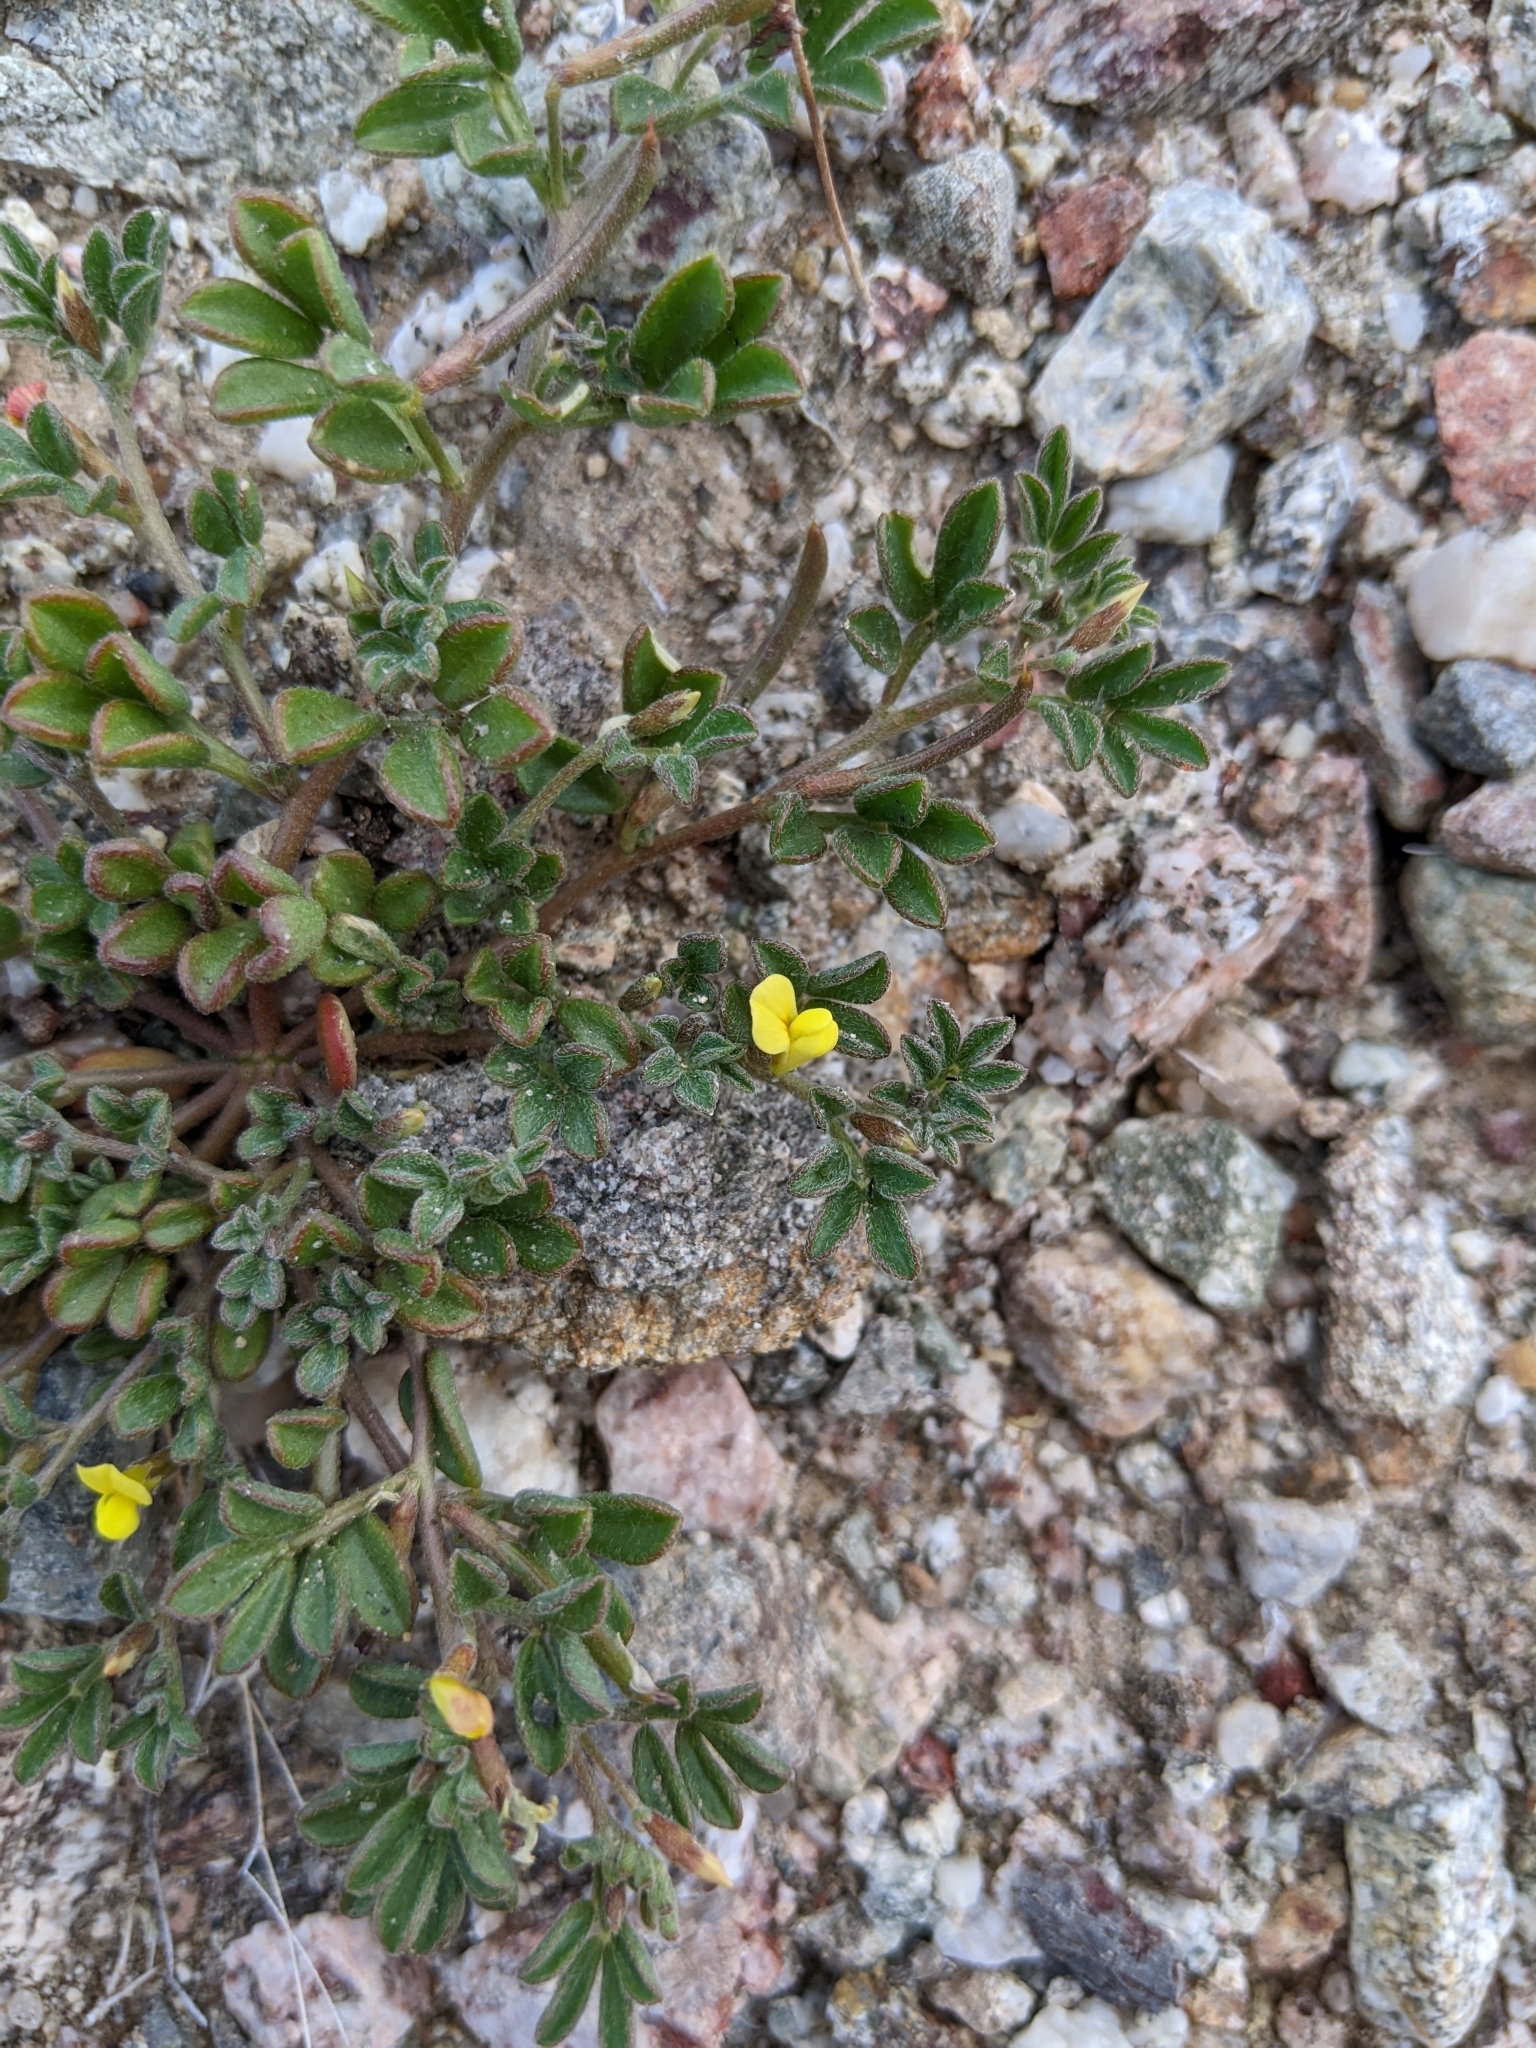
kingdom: Plantae
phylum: Tracheophyta
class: Magnoliopsida
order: Fabales
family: Fabaceae
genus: Acmispon
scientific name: Acmispon strigosus
